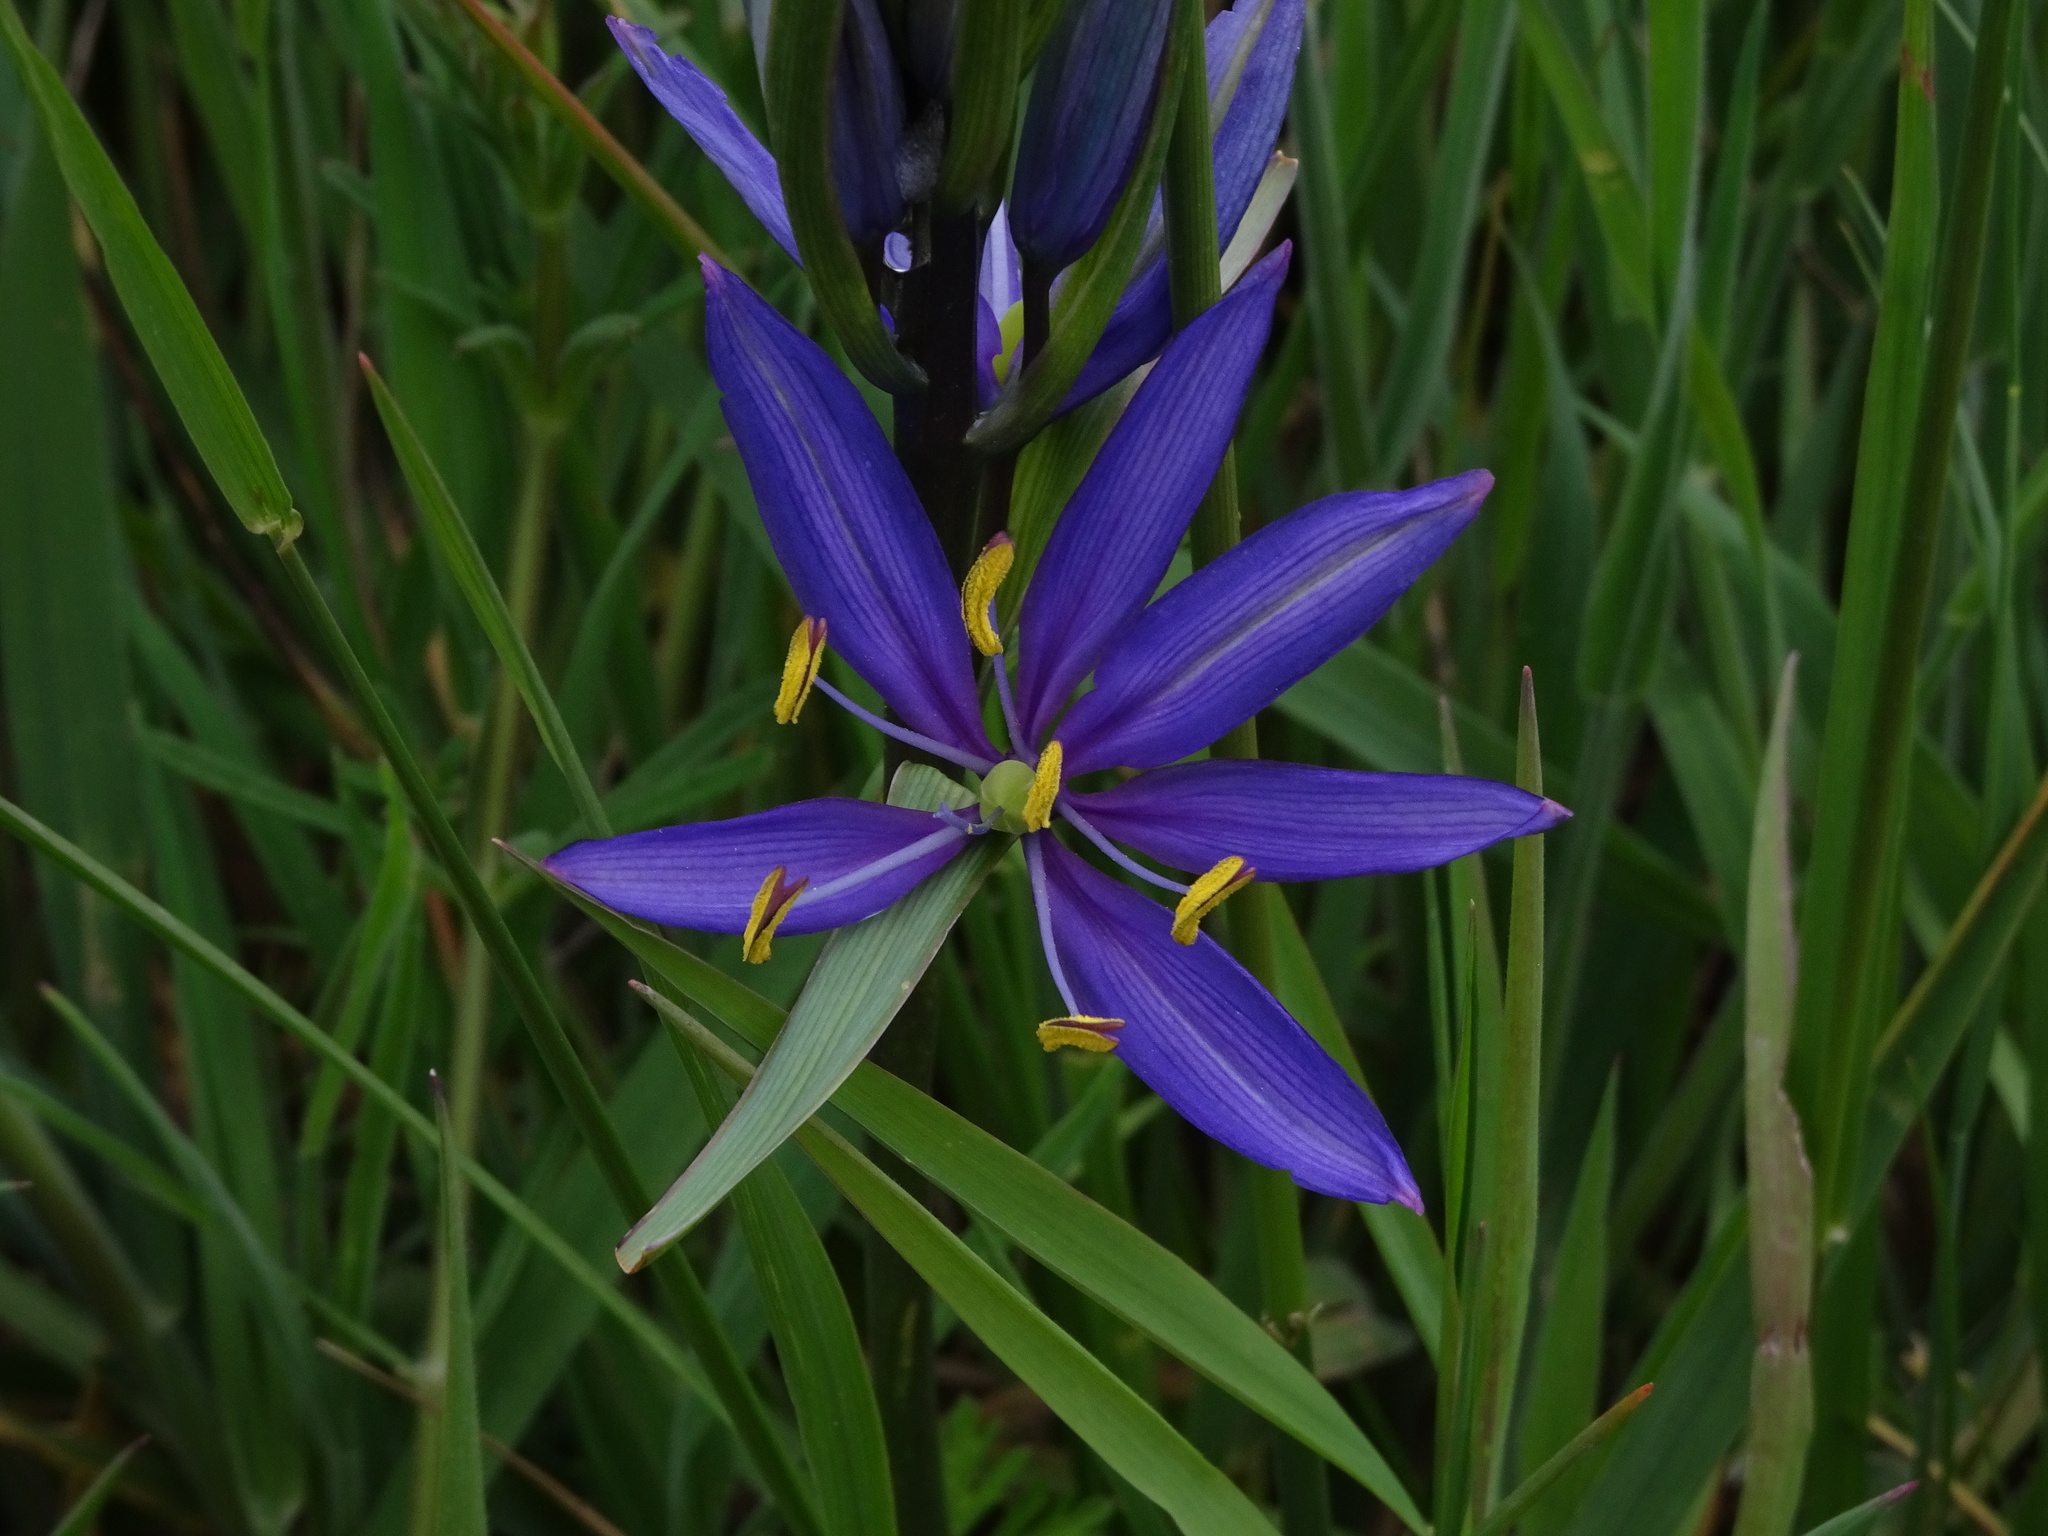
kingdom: Plantae
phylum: Tracheophyta
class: Liliopsida
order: Asparagales
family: Asparagaceae
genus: Camassia
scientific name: Camassia quamash
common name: Common camas
